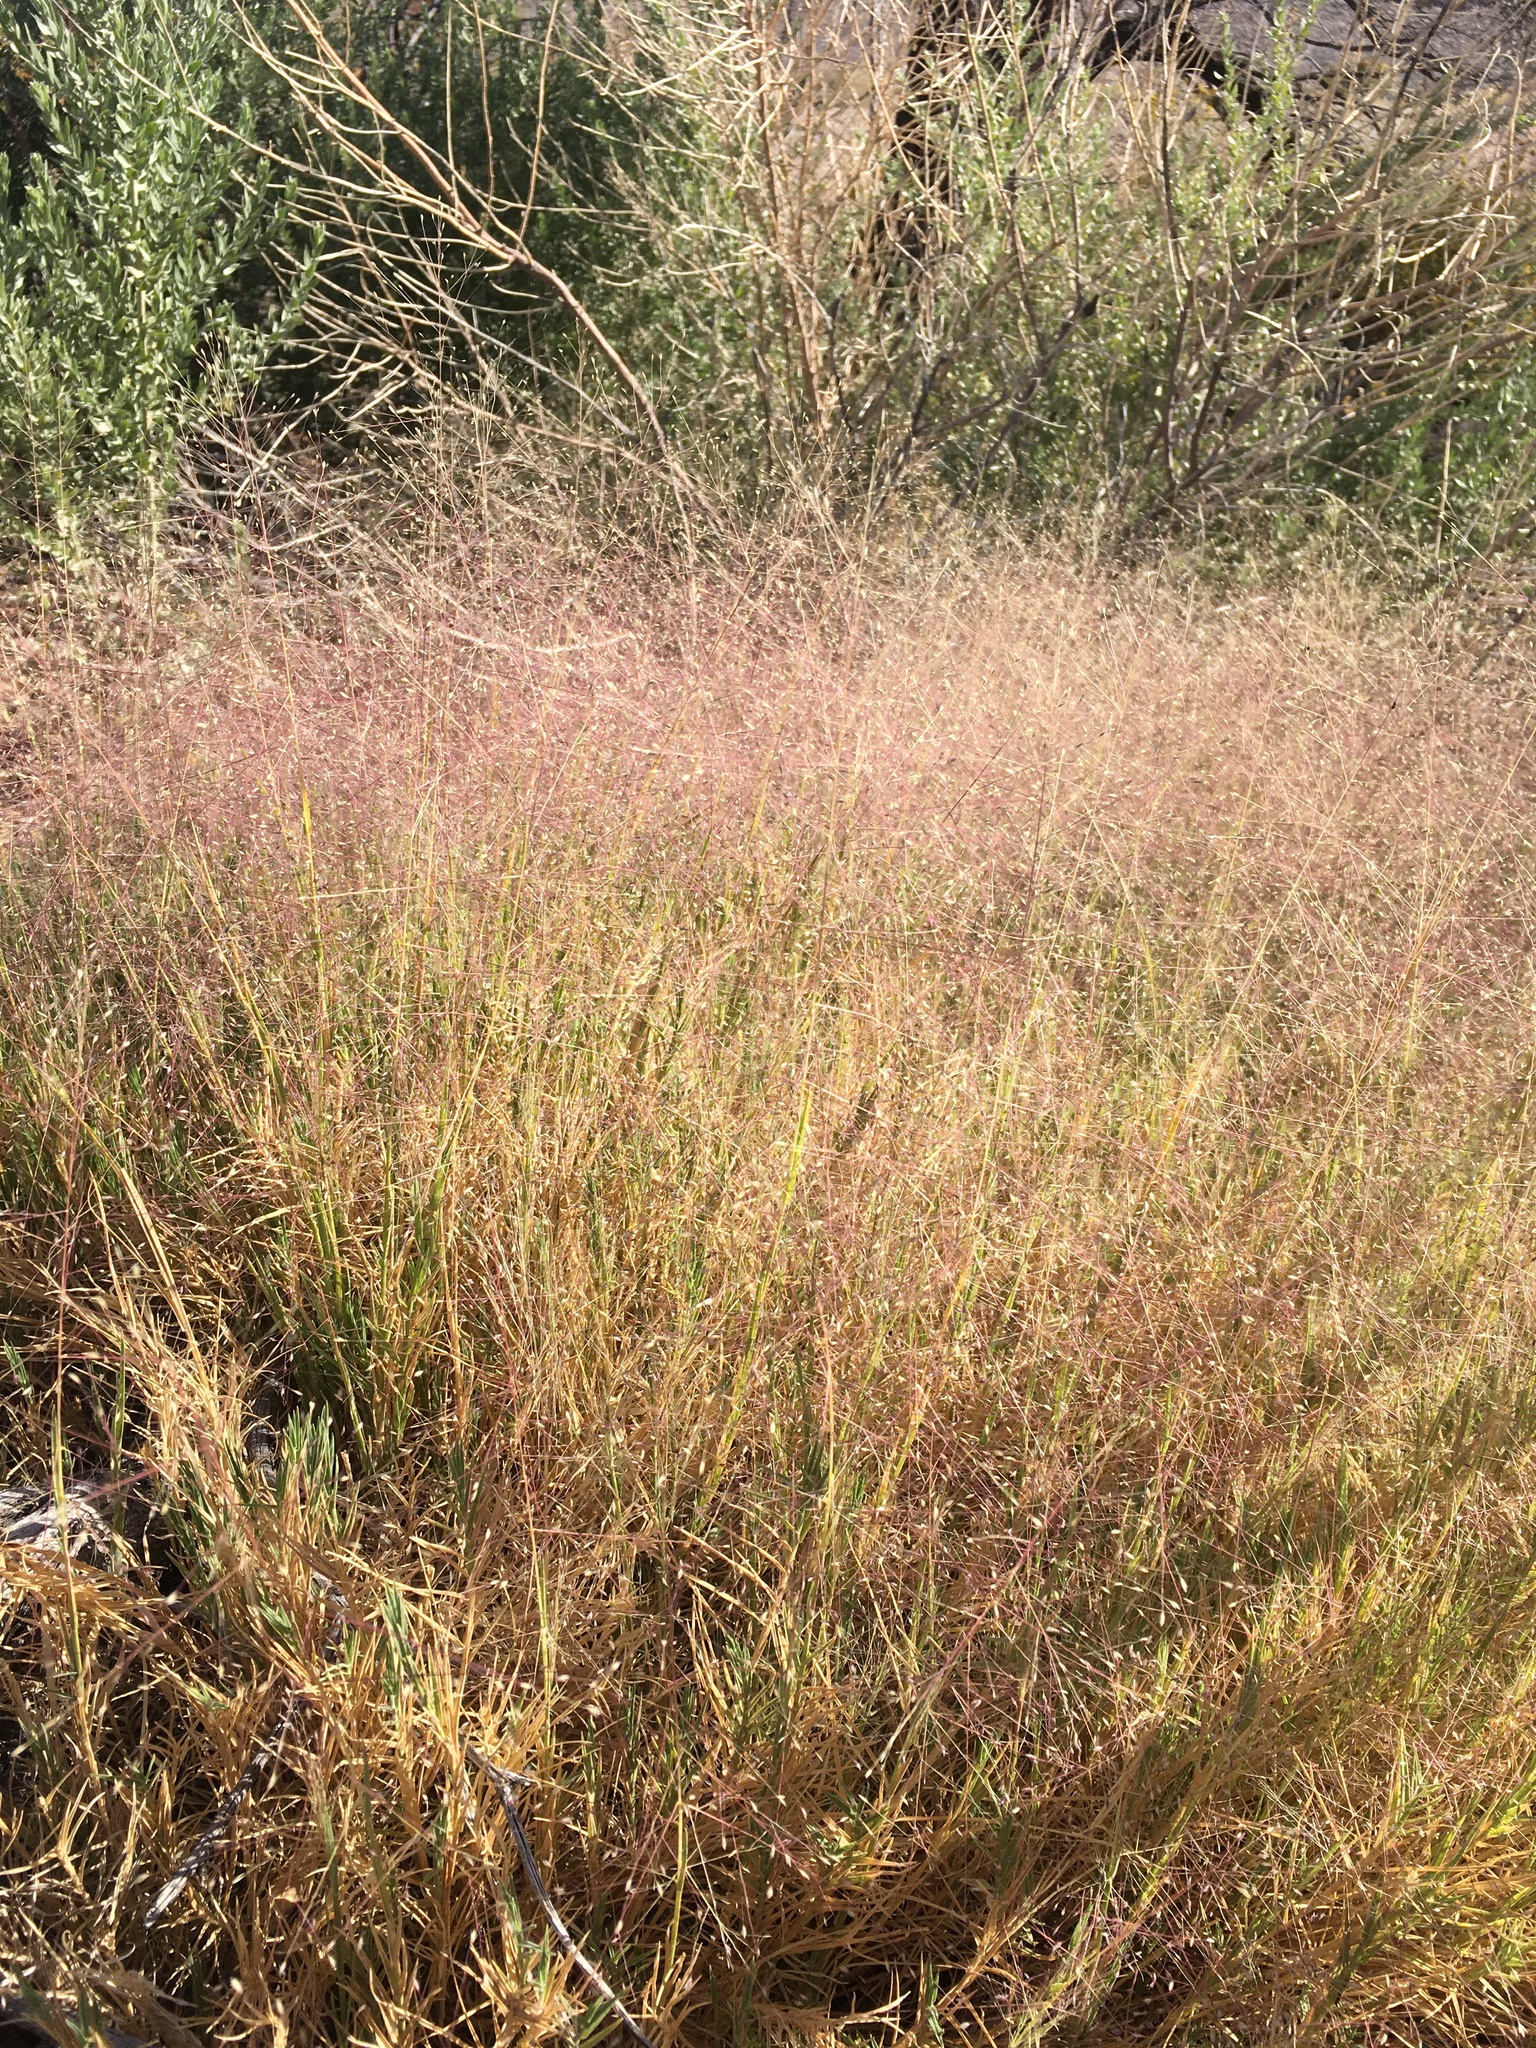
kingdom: Plantae
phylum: Tracheophyta
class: Liliopsida
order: Poales
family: Poaceae
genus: Muhlenbergia
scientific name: Muhlenbergia asperifolia
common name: Alkali muhly
